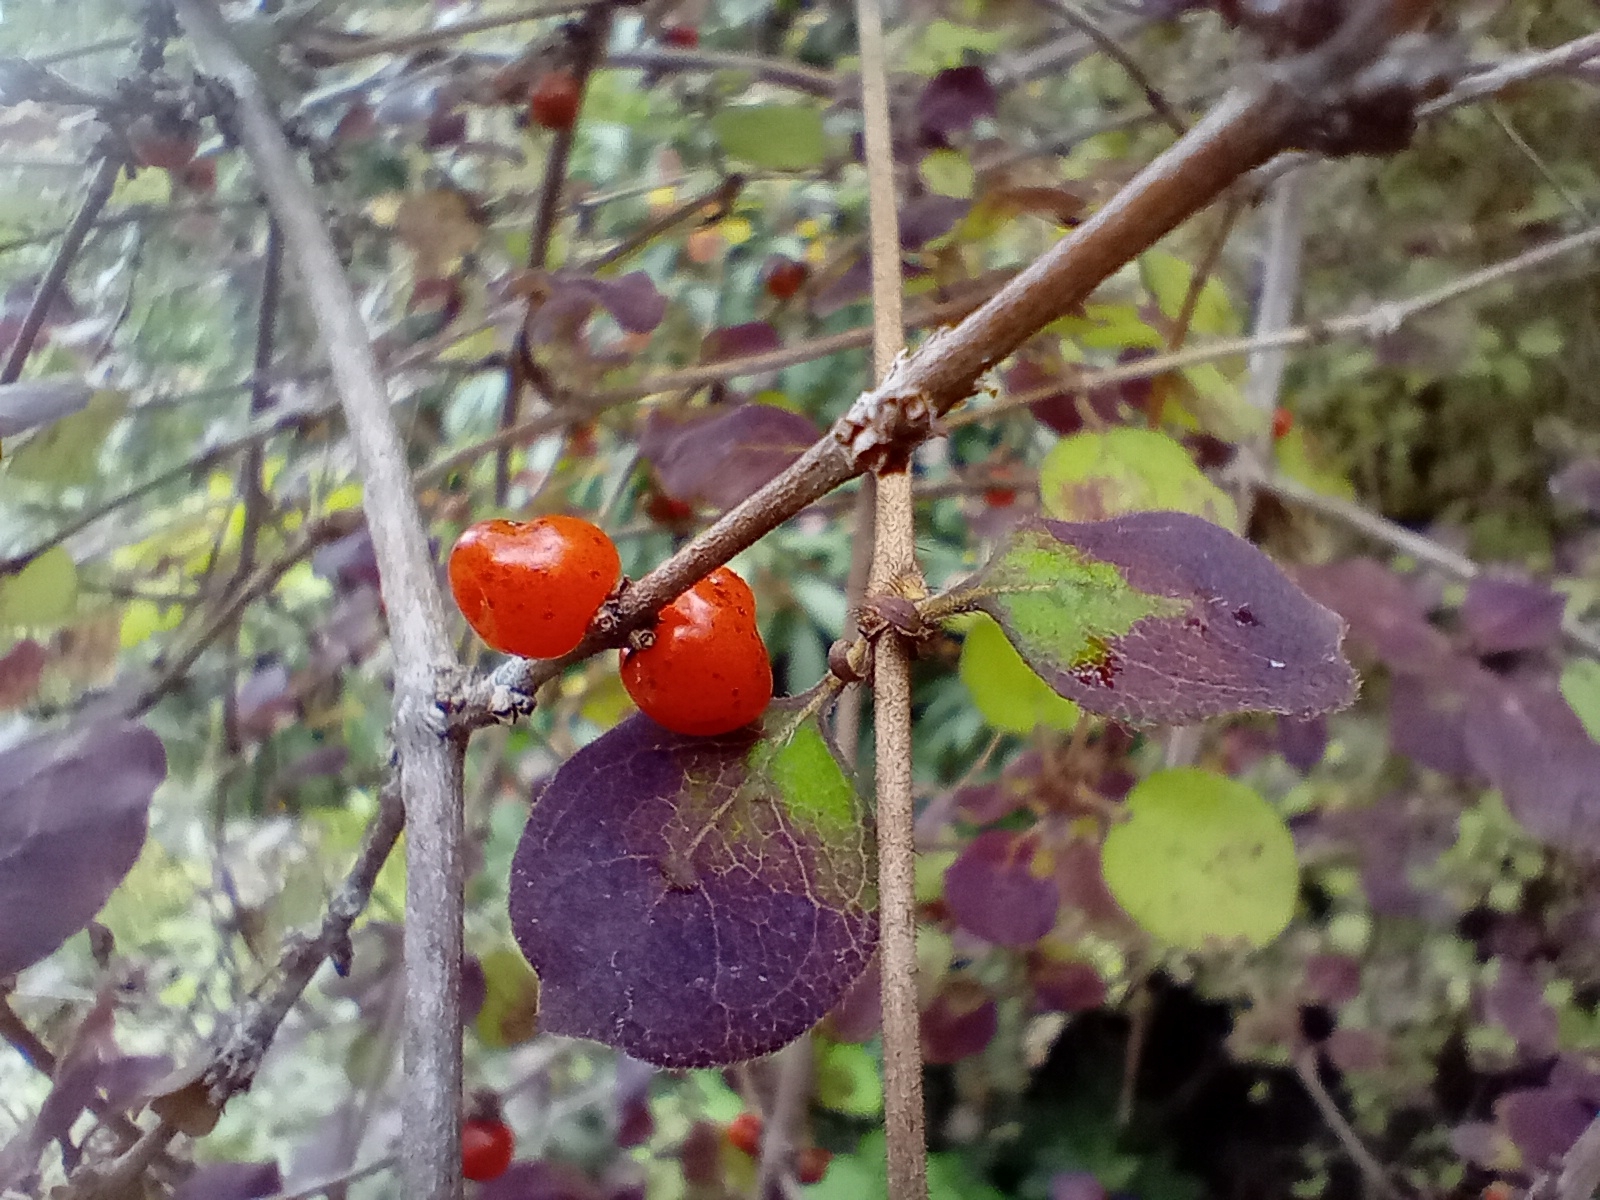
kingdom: Plantae
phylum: Tracheophyta
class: Magnoliopsida
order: Gentianales
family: Rubiaceae
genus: Coprosma
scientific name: Coprosma rotundifolia
